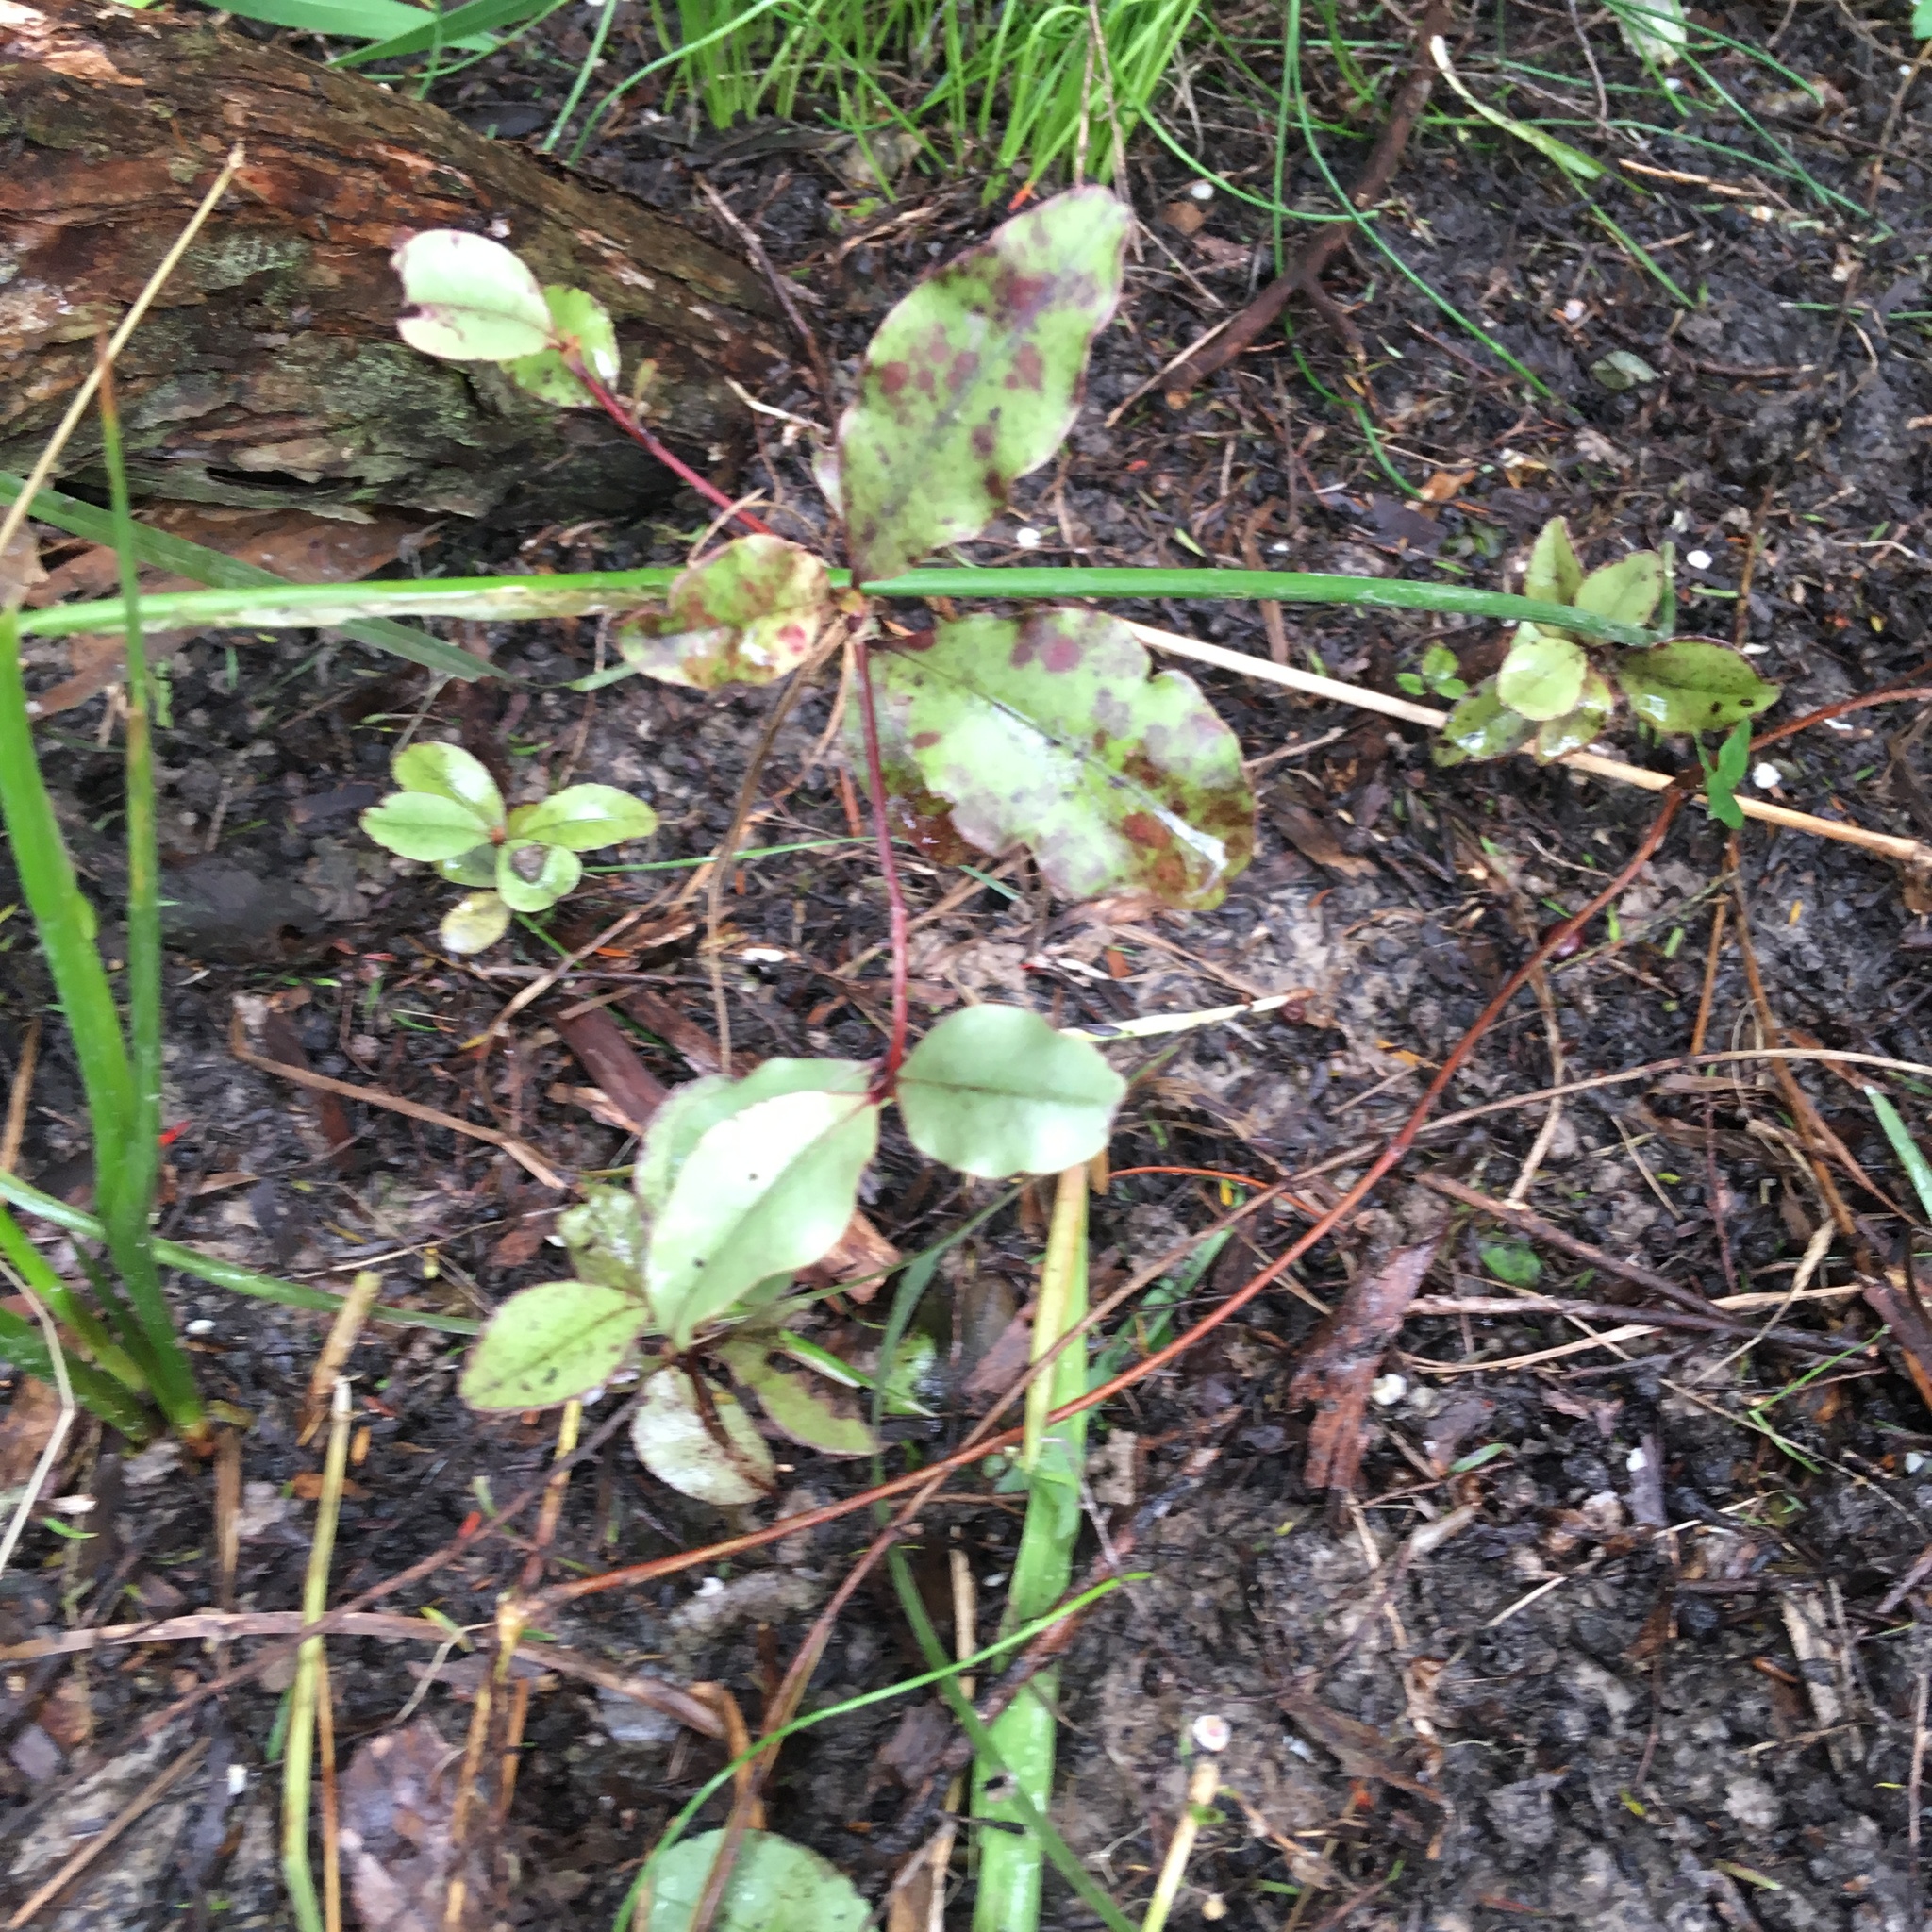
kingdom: Plantae
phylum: Tracheophyta
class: Magnoliopsida
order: Ericales
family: Primulaceae
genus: Myrsine
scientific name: Myrsine australis
